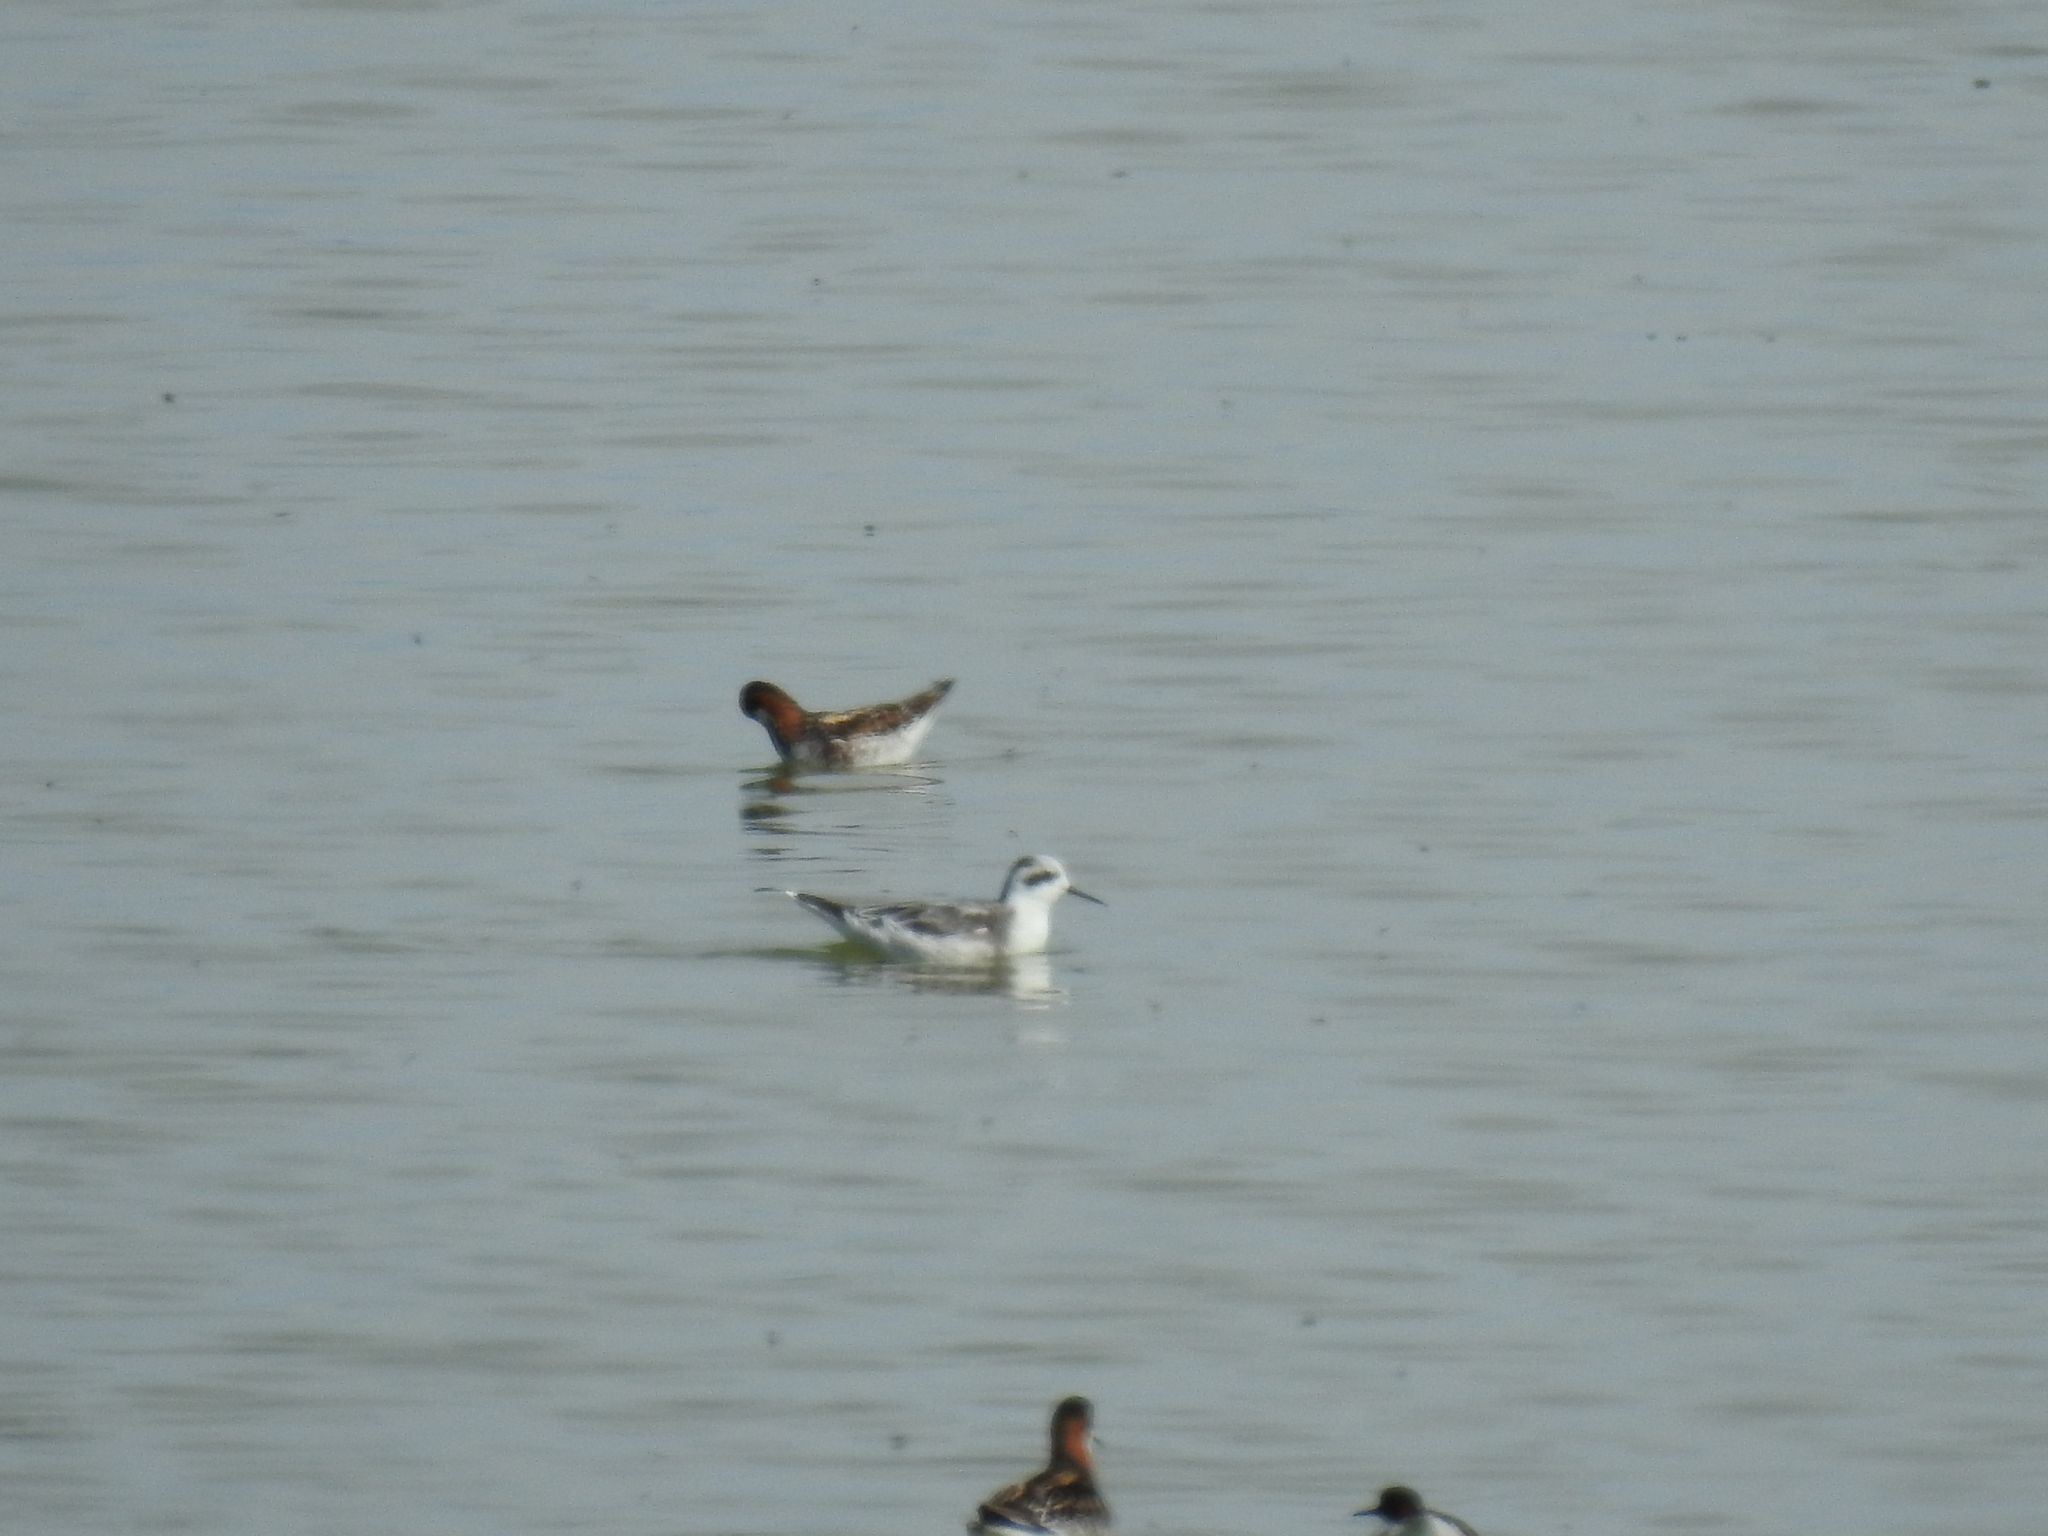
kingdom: Animalia
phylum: Chordata
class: Aves
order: Charadriiformes
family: Scolopacidae
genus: Phalaropus
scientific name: Phalaropus lobatus
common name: Red-necked phalarope
